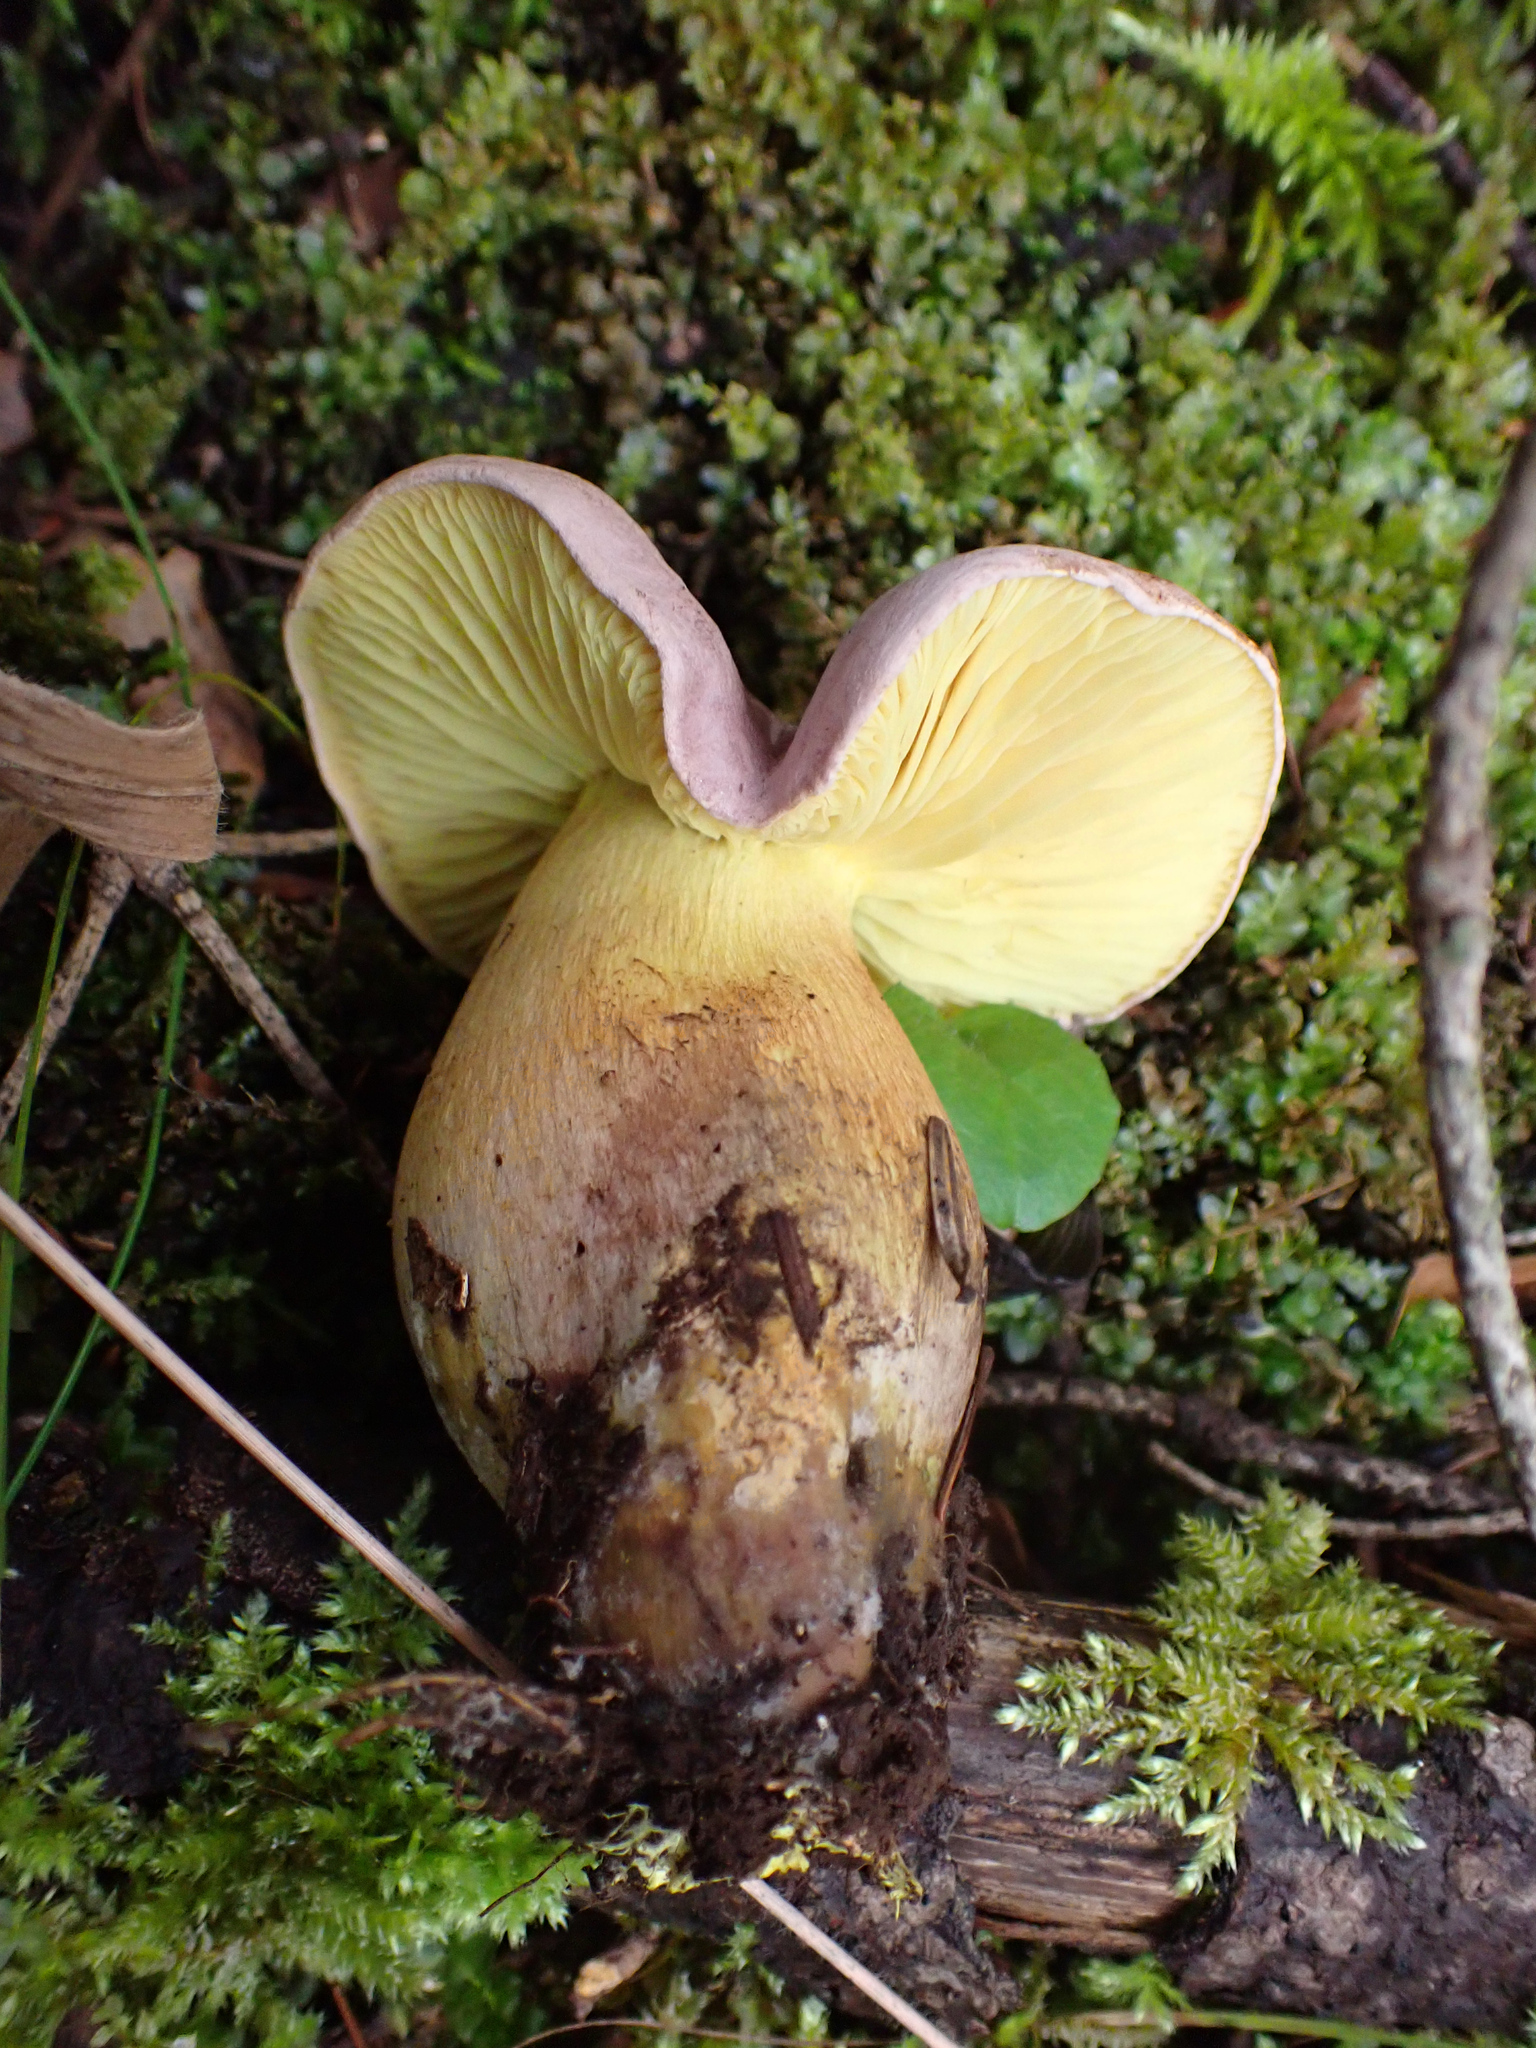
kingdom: Fungi
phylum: Basidiomycota
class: Agaricomycetes
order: Agaricales
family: Tricholomataceae
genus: Tricholoma
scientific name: Tricholoma sulphureum
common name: Stinky knight
